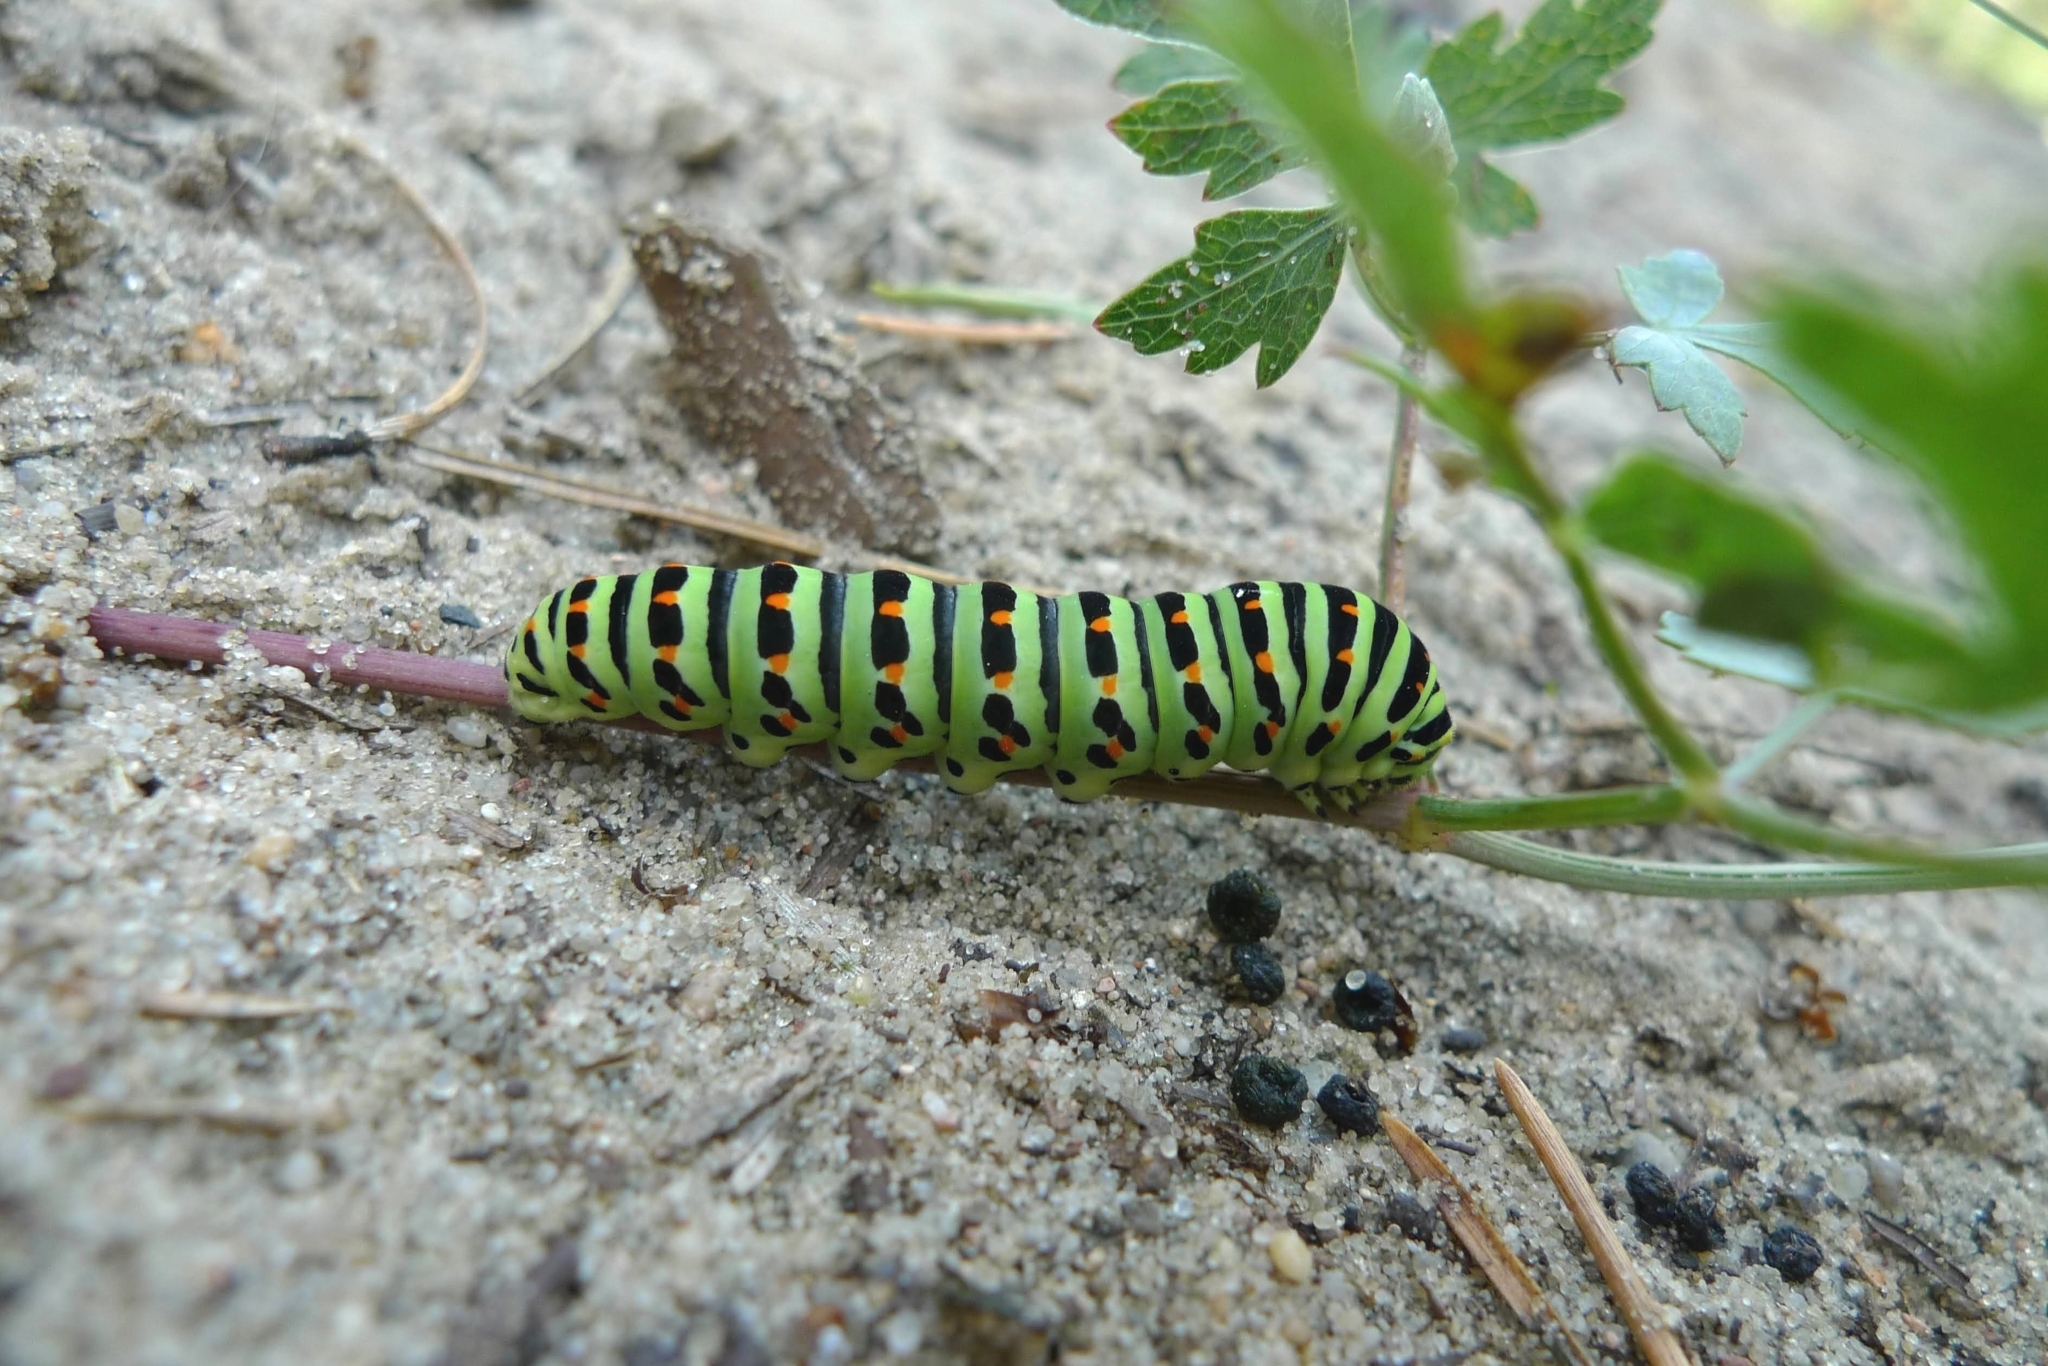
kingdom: Animalia
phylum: Arthropoda
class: Insecta
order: Lepidoptera
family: Papilionidae
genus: Papilio
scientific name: Papilio machaon
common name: Swallowtail
